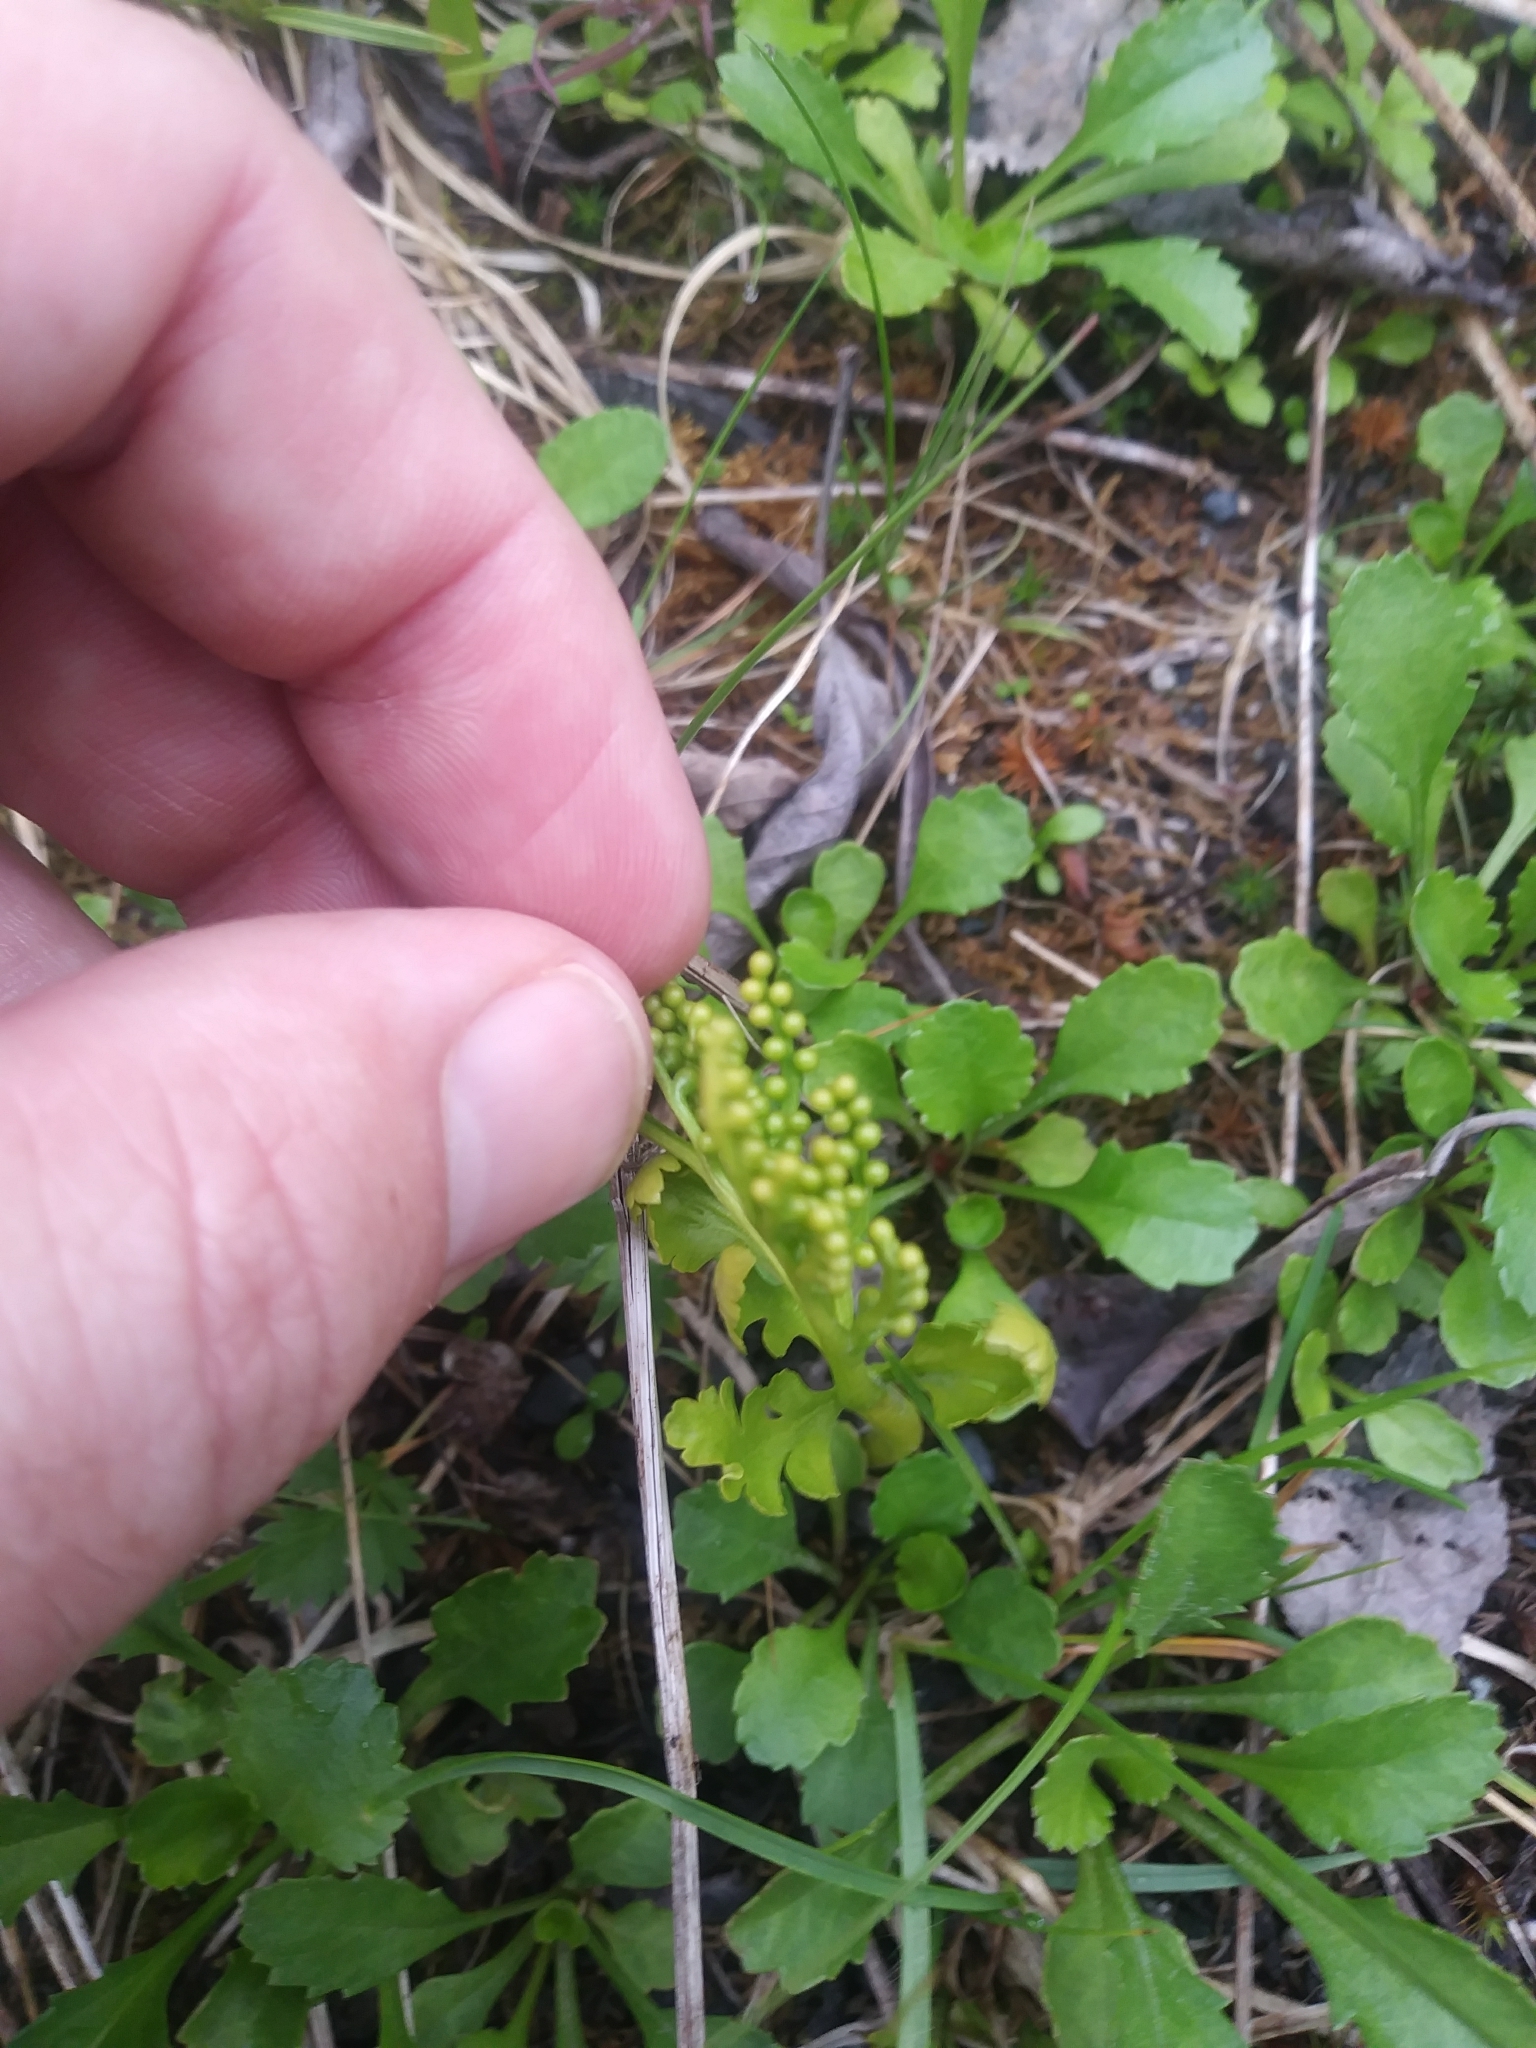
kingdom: Plantae
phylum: Tracheophyta
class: Polypodiopsida
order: Ophioglossales
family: Ophioglossaceae
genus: Botrychium
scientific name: Botrychium lanceolatum
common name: Lance-leaved moonwort
